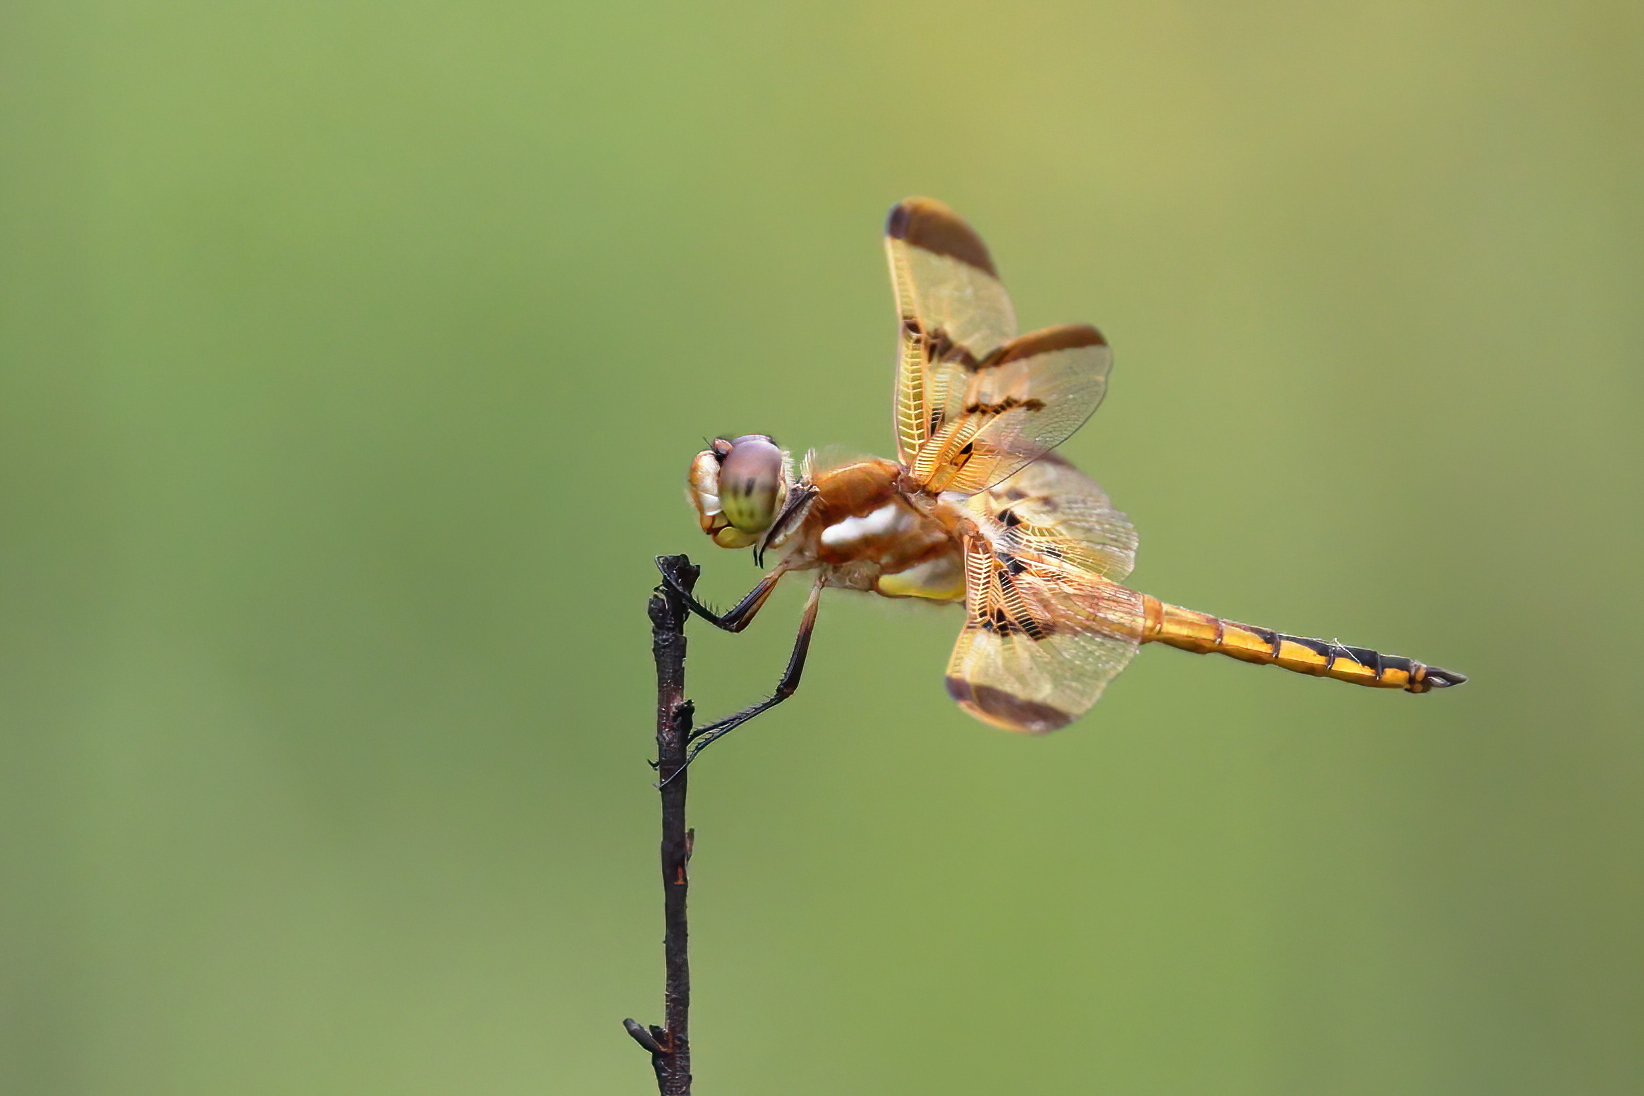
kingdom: Animalia
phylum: Arthropoda
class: Insecta
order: Odonata
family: Libellulidae
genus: Libellula
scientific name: Libellula semifasciata
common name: Painted skimmer
